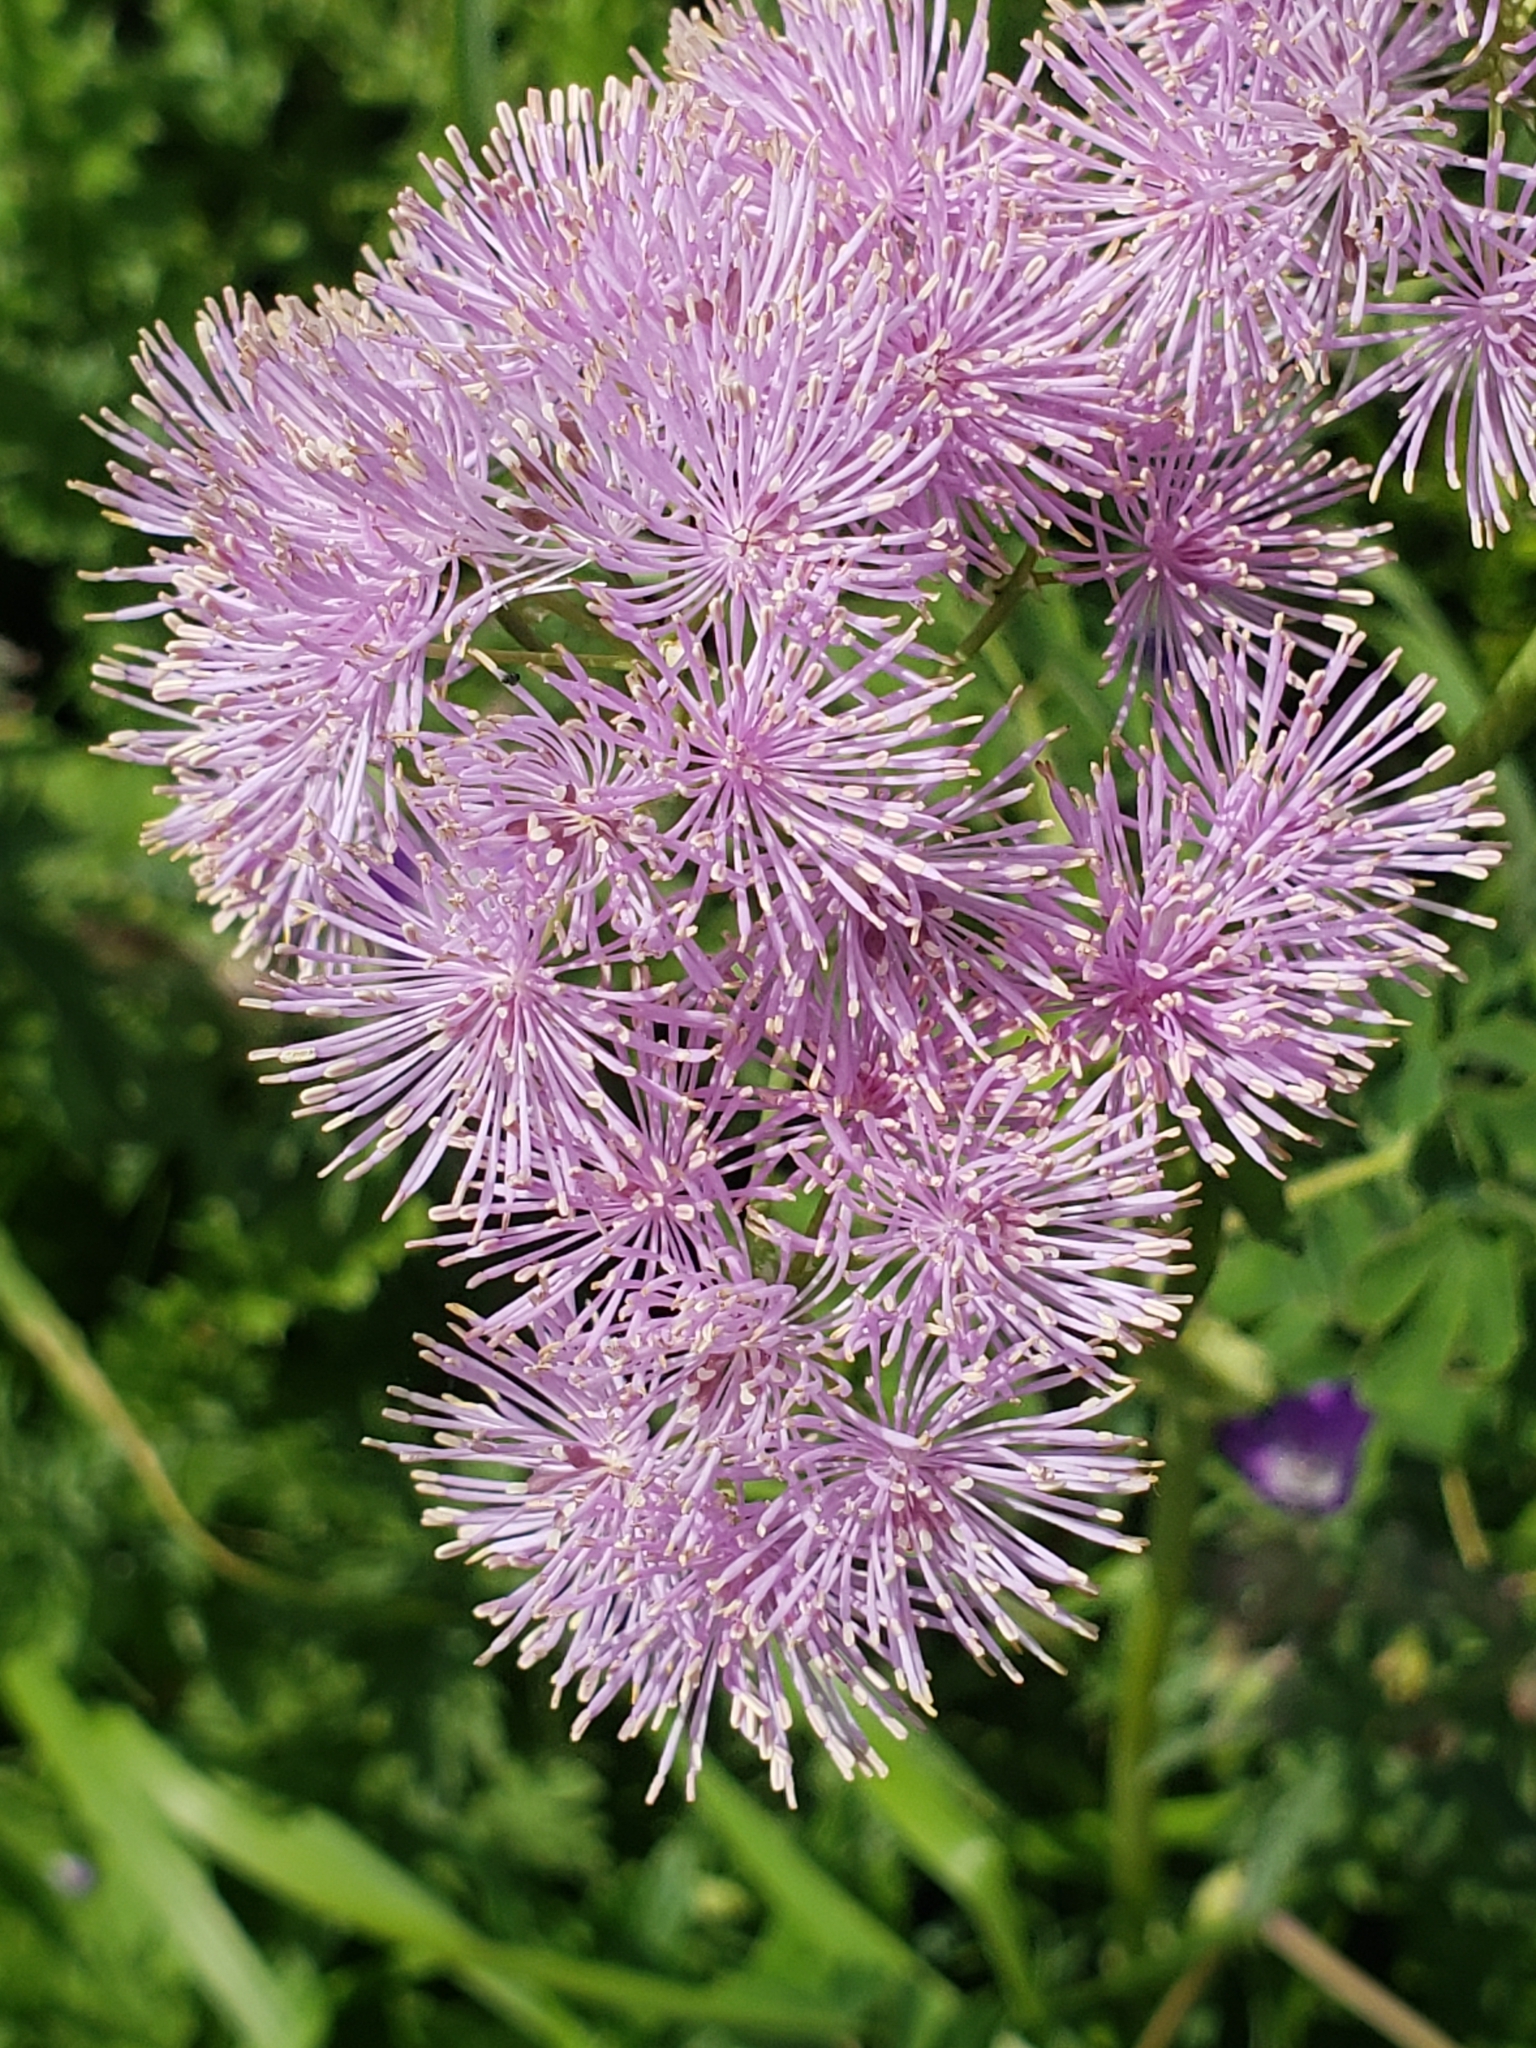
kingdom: Plantae
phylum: Tracheophyta
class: Magnoliopsida
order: Ranunculales
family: Ranunculaceae
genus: Thalictrum
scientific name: Thalictrum aquilegiifolium
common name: French meadow-rue
